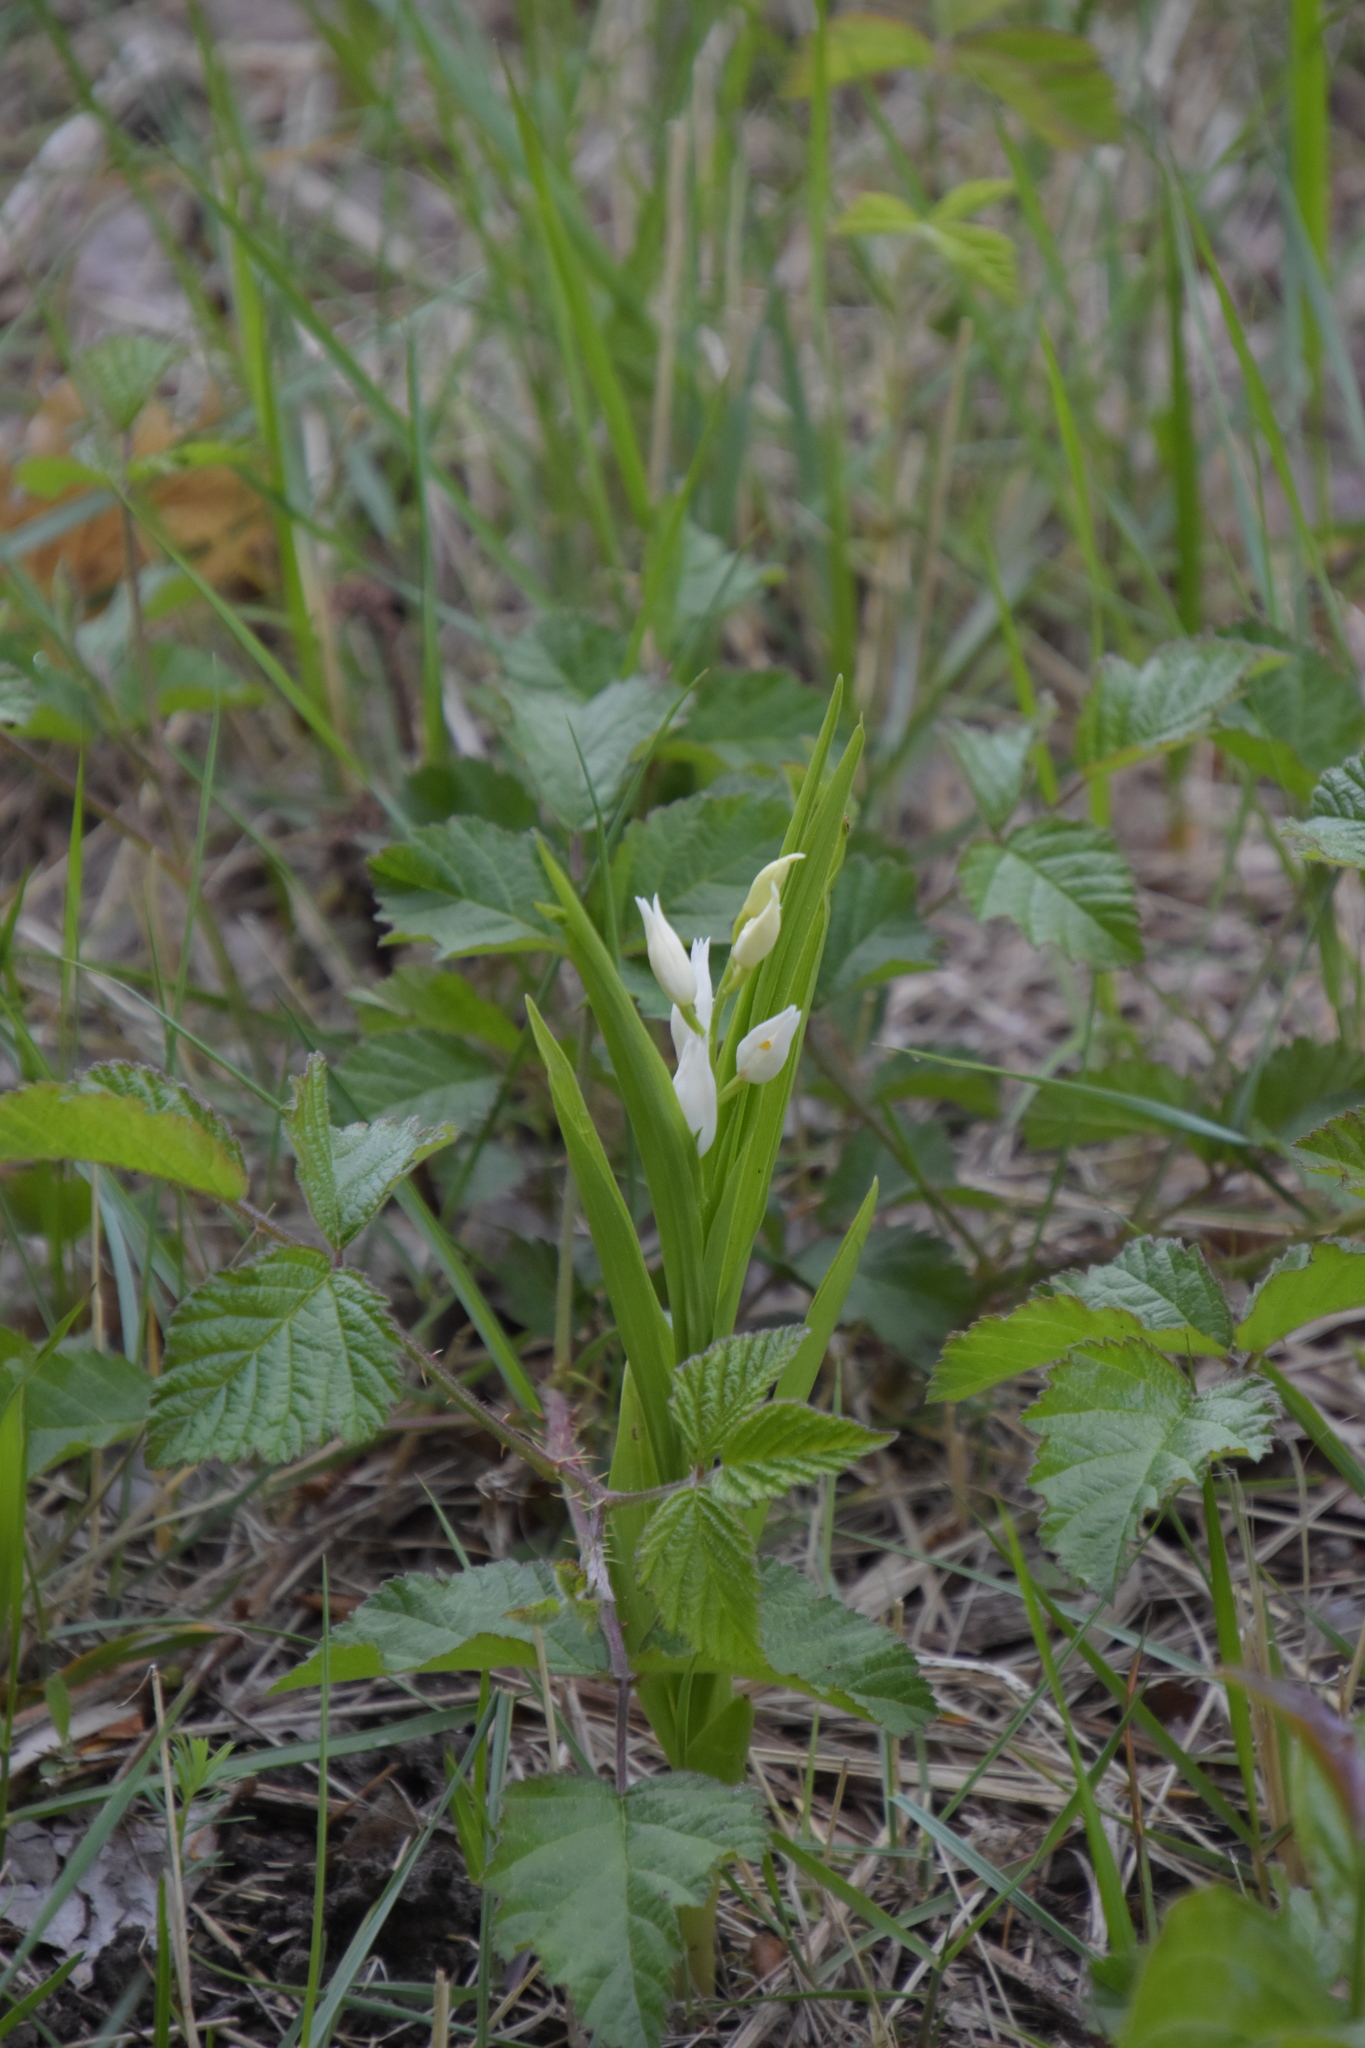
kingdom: Plantae
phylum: Tracheophyta
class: Liliopsida
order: Asparagales
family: Orchidaceae
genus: Cephalanthera
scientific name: Cephalanthera longifolia
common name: Narrow-leaved helleborine
